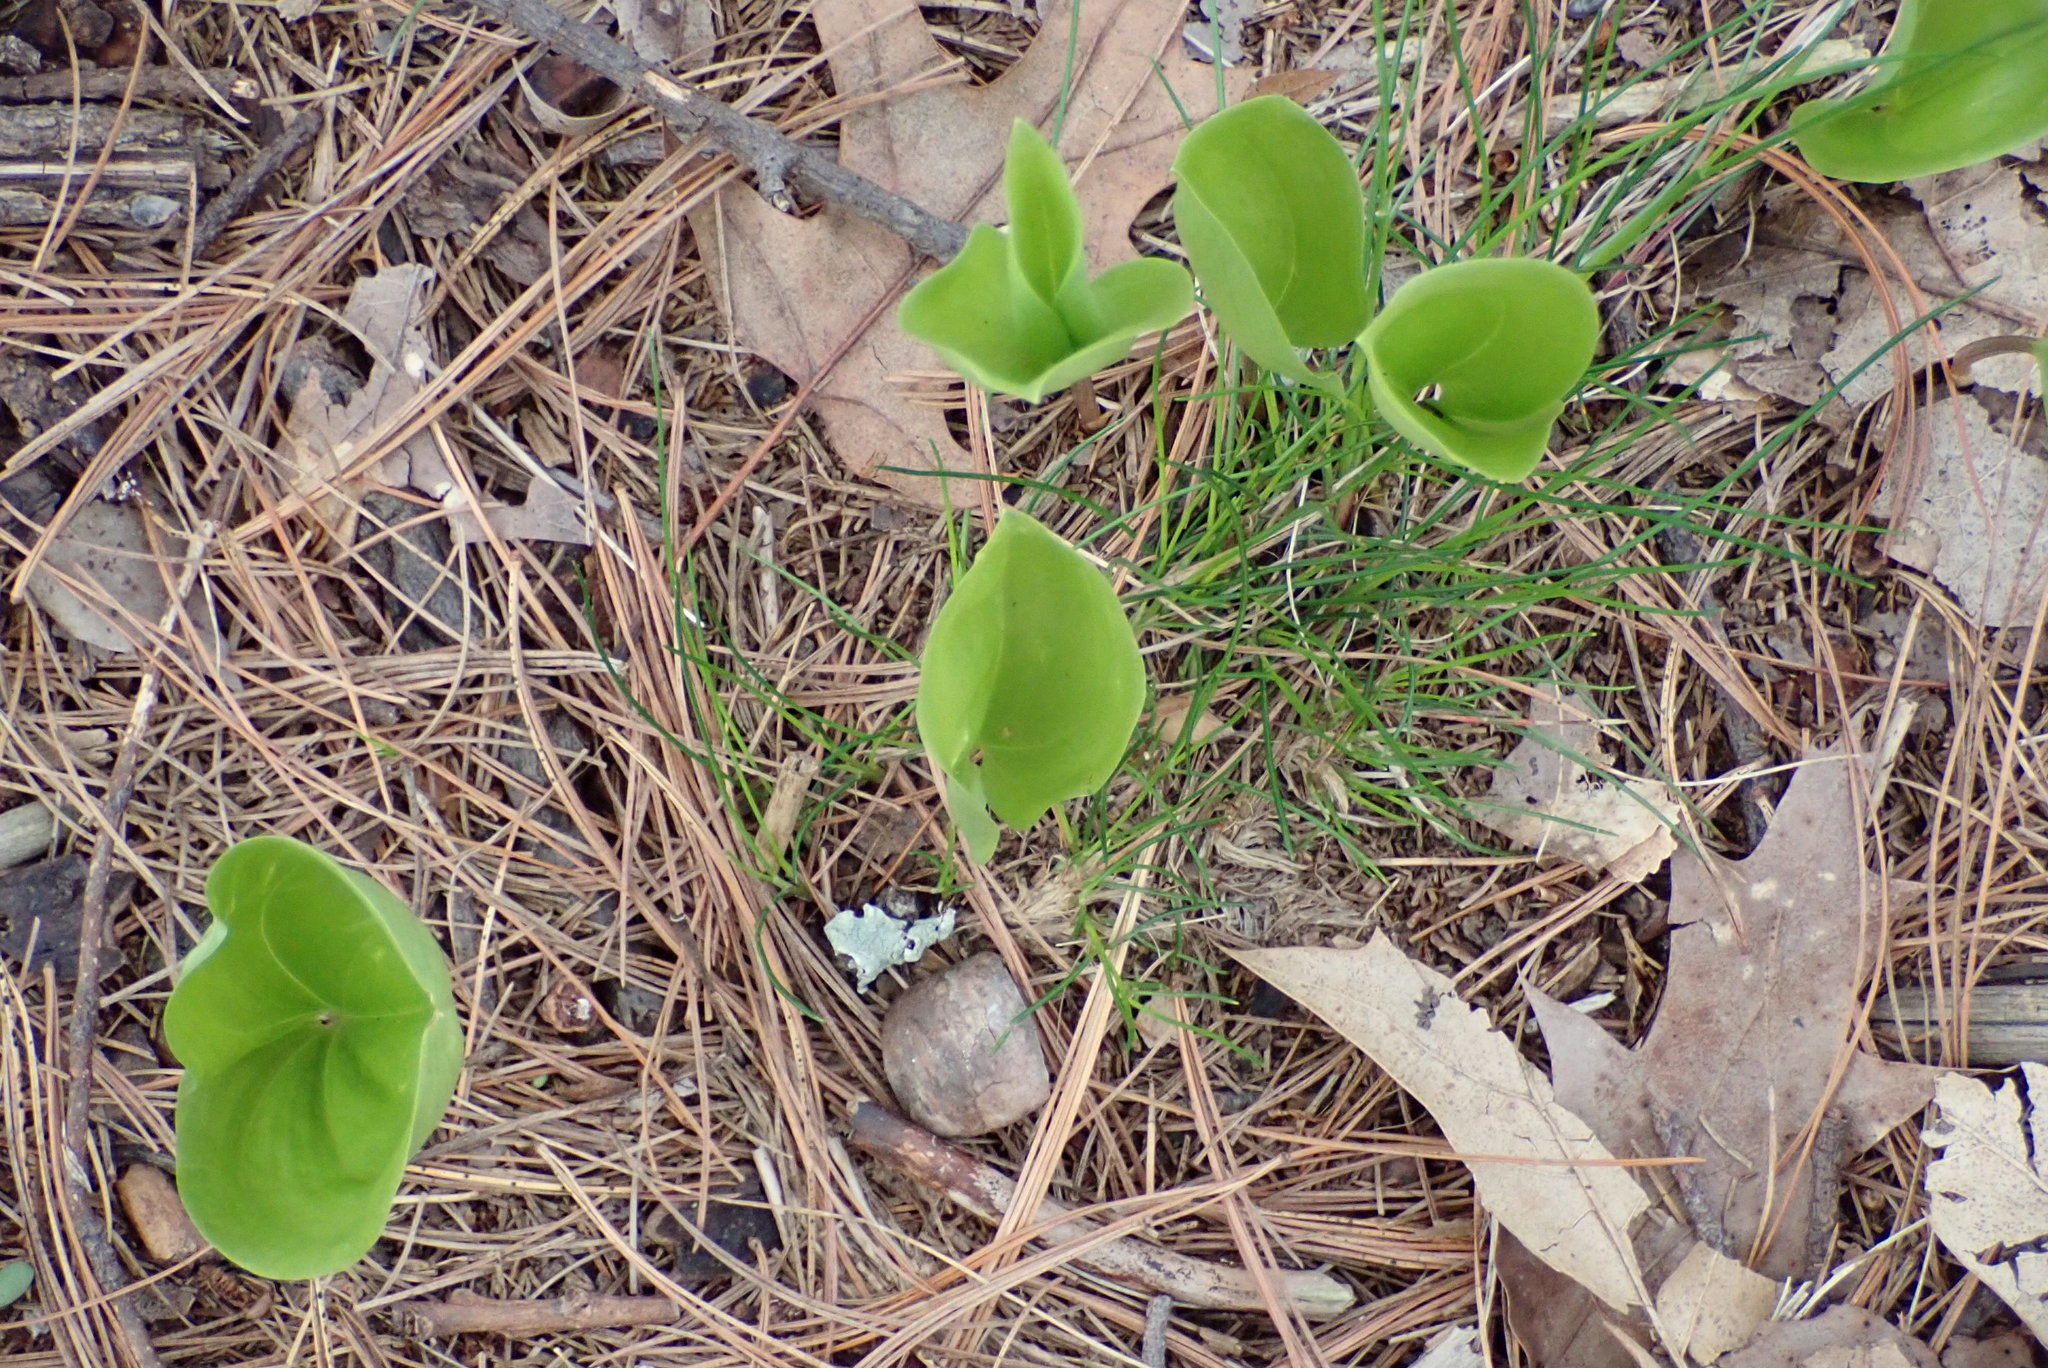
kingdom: Plantae
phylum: Tracheophyta
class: Liliopsida
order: Asparagales
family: Asparagaceae
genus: Maianthemum
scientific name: Maianthemum canadense
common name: False lily-of-the-valley
